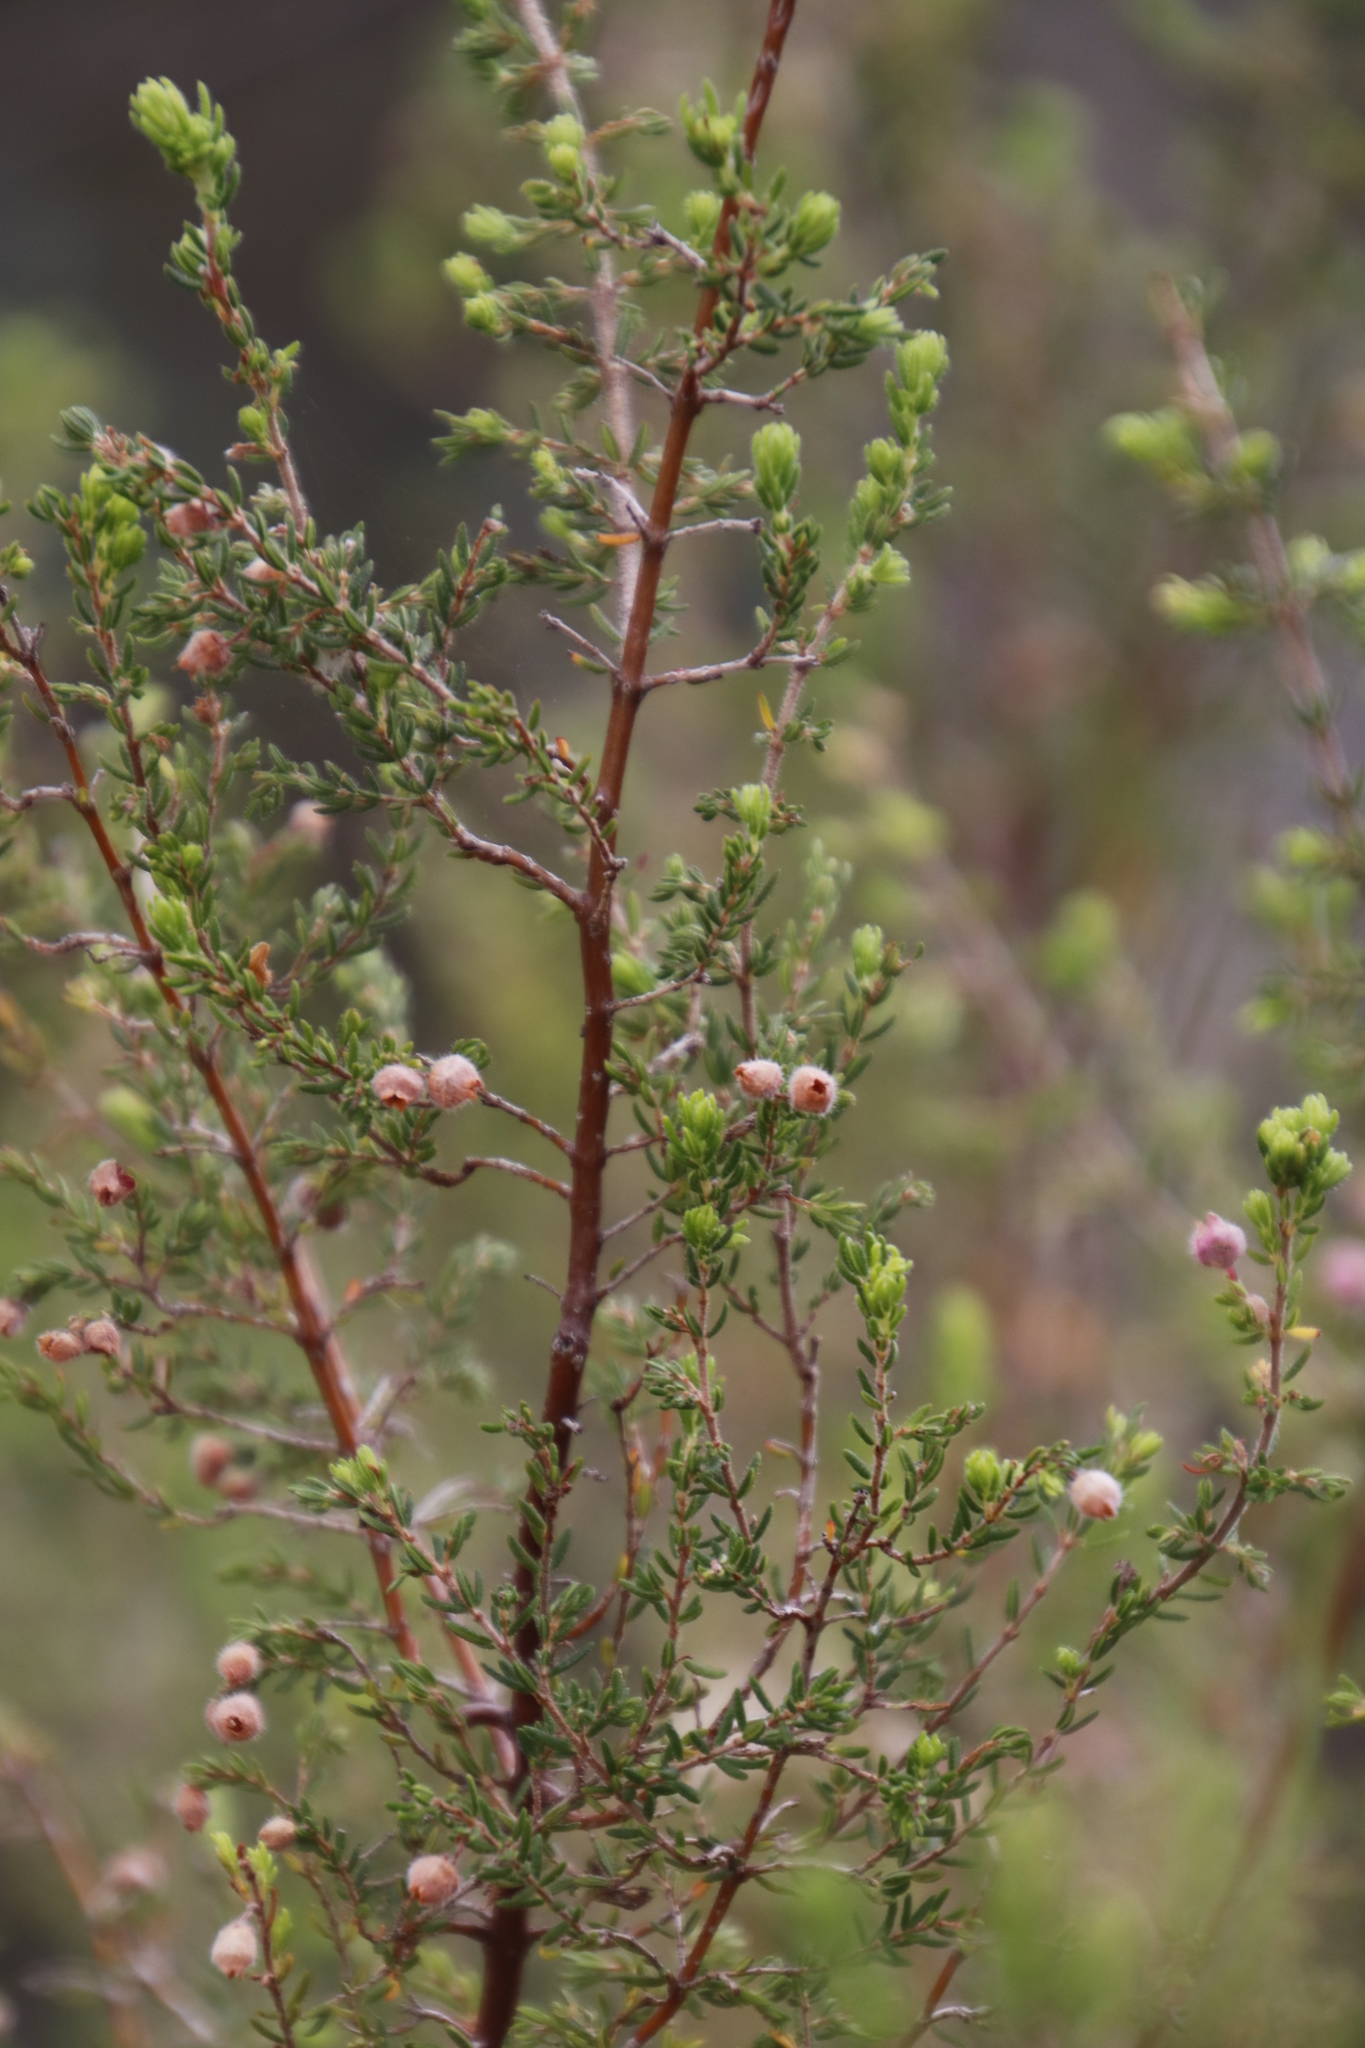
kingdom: Plantae
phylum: Tracheophyta
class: Magnoliopsida
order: Ericales
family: Ericaceae
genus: Erica
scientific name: Erica hirtiflora
